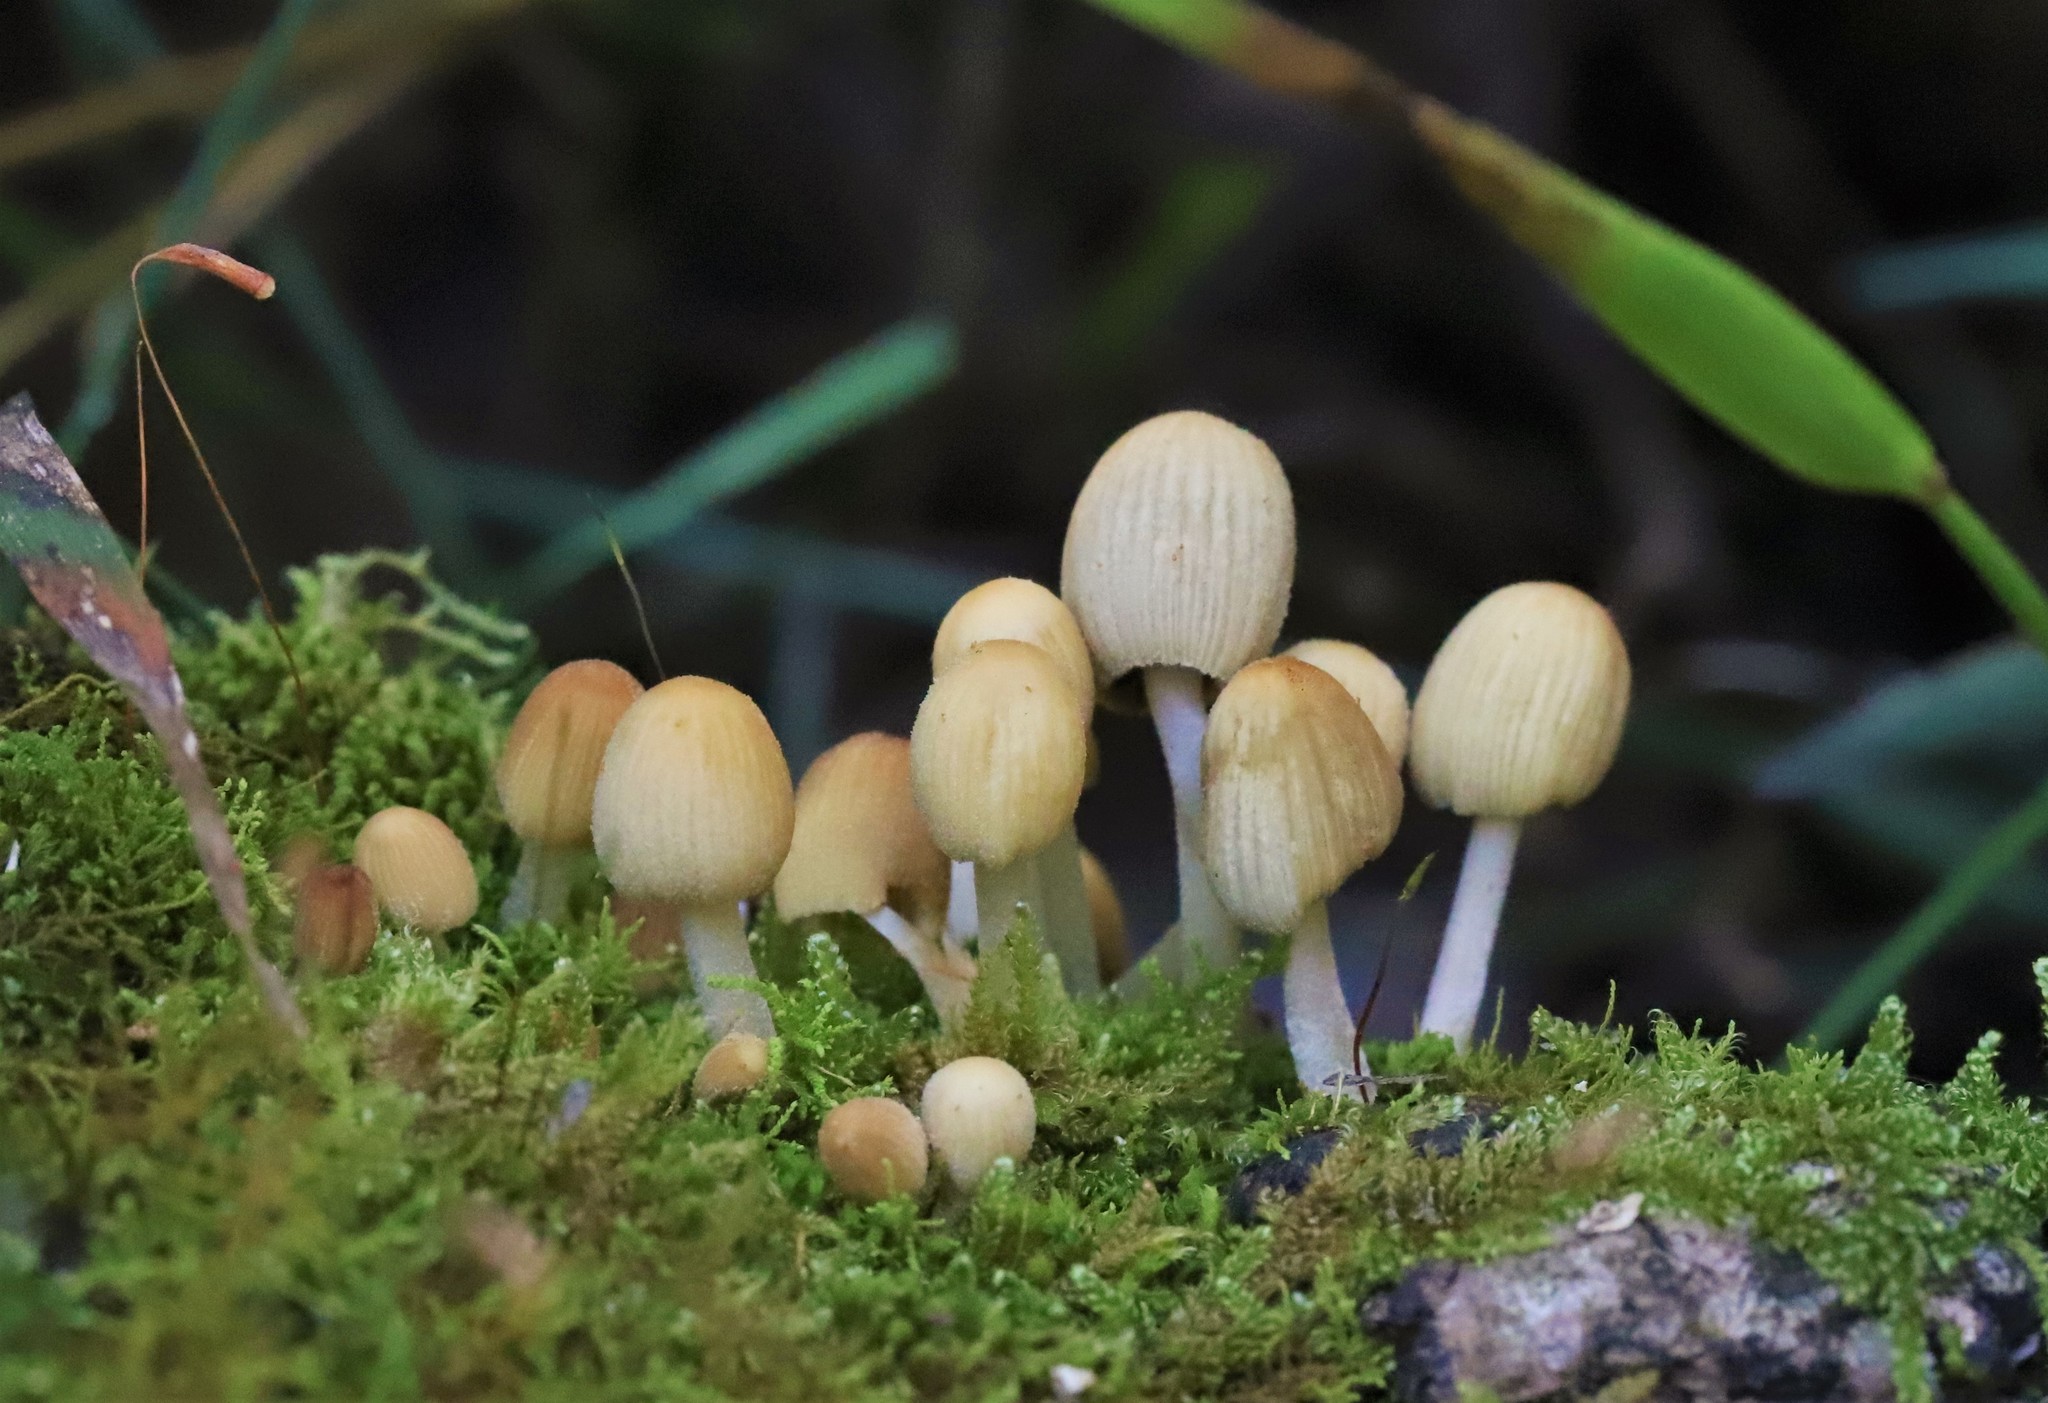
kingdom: Fungi
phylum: Basidiomycota
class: Agaricomycetes
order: Agaricales
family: Psathyrellaceae
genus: Coprinellus
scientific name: Coprinellus disseminatus
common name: Fairies' bonnets
